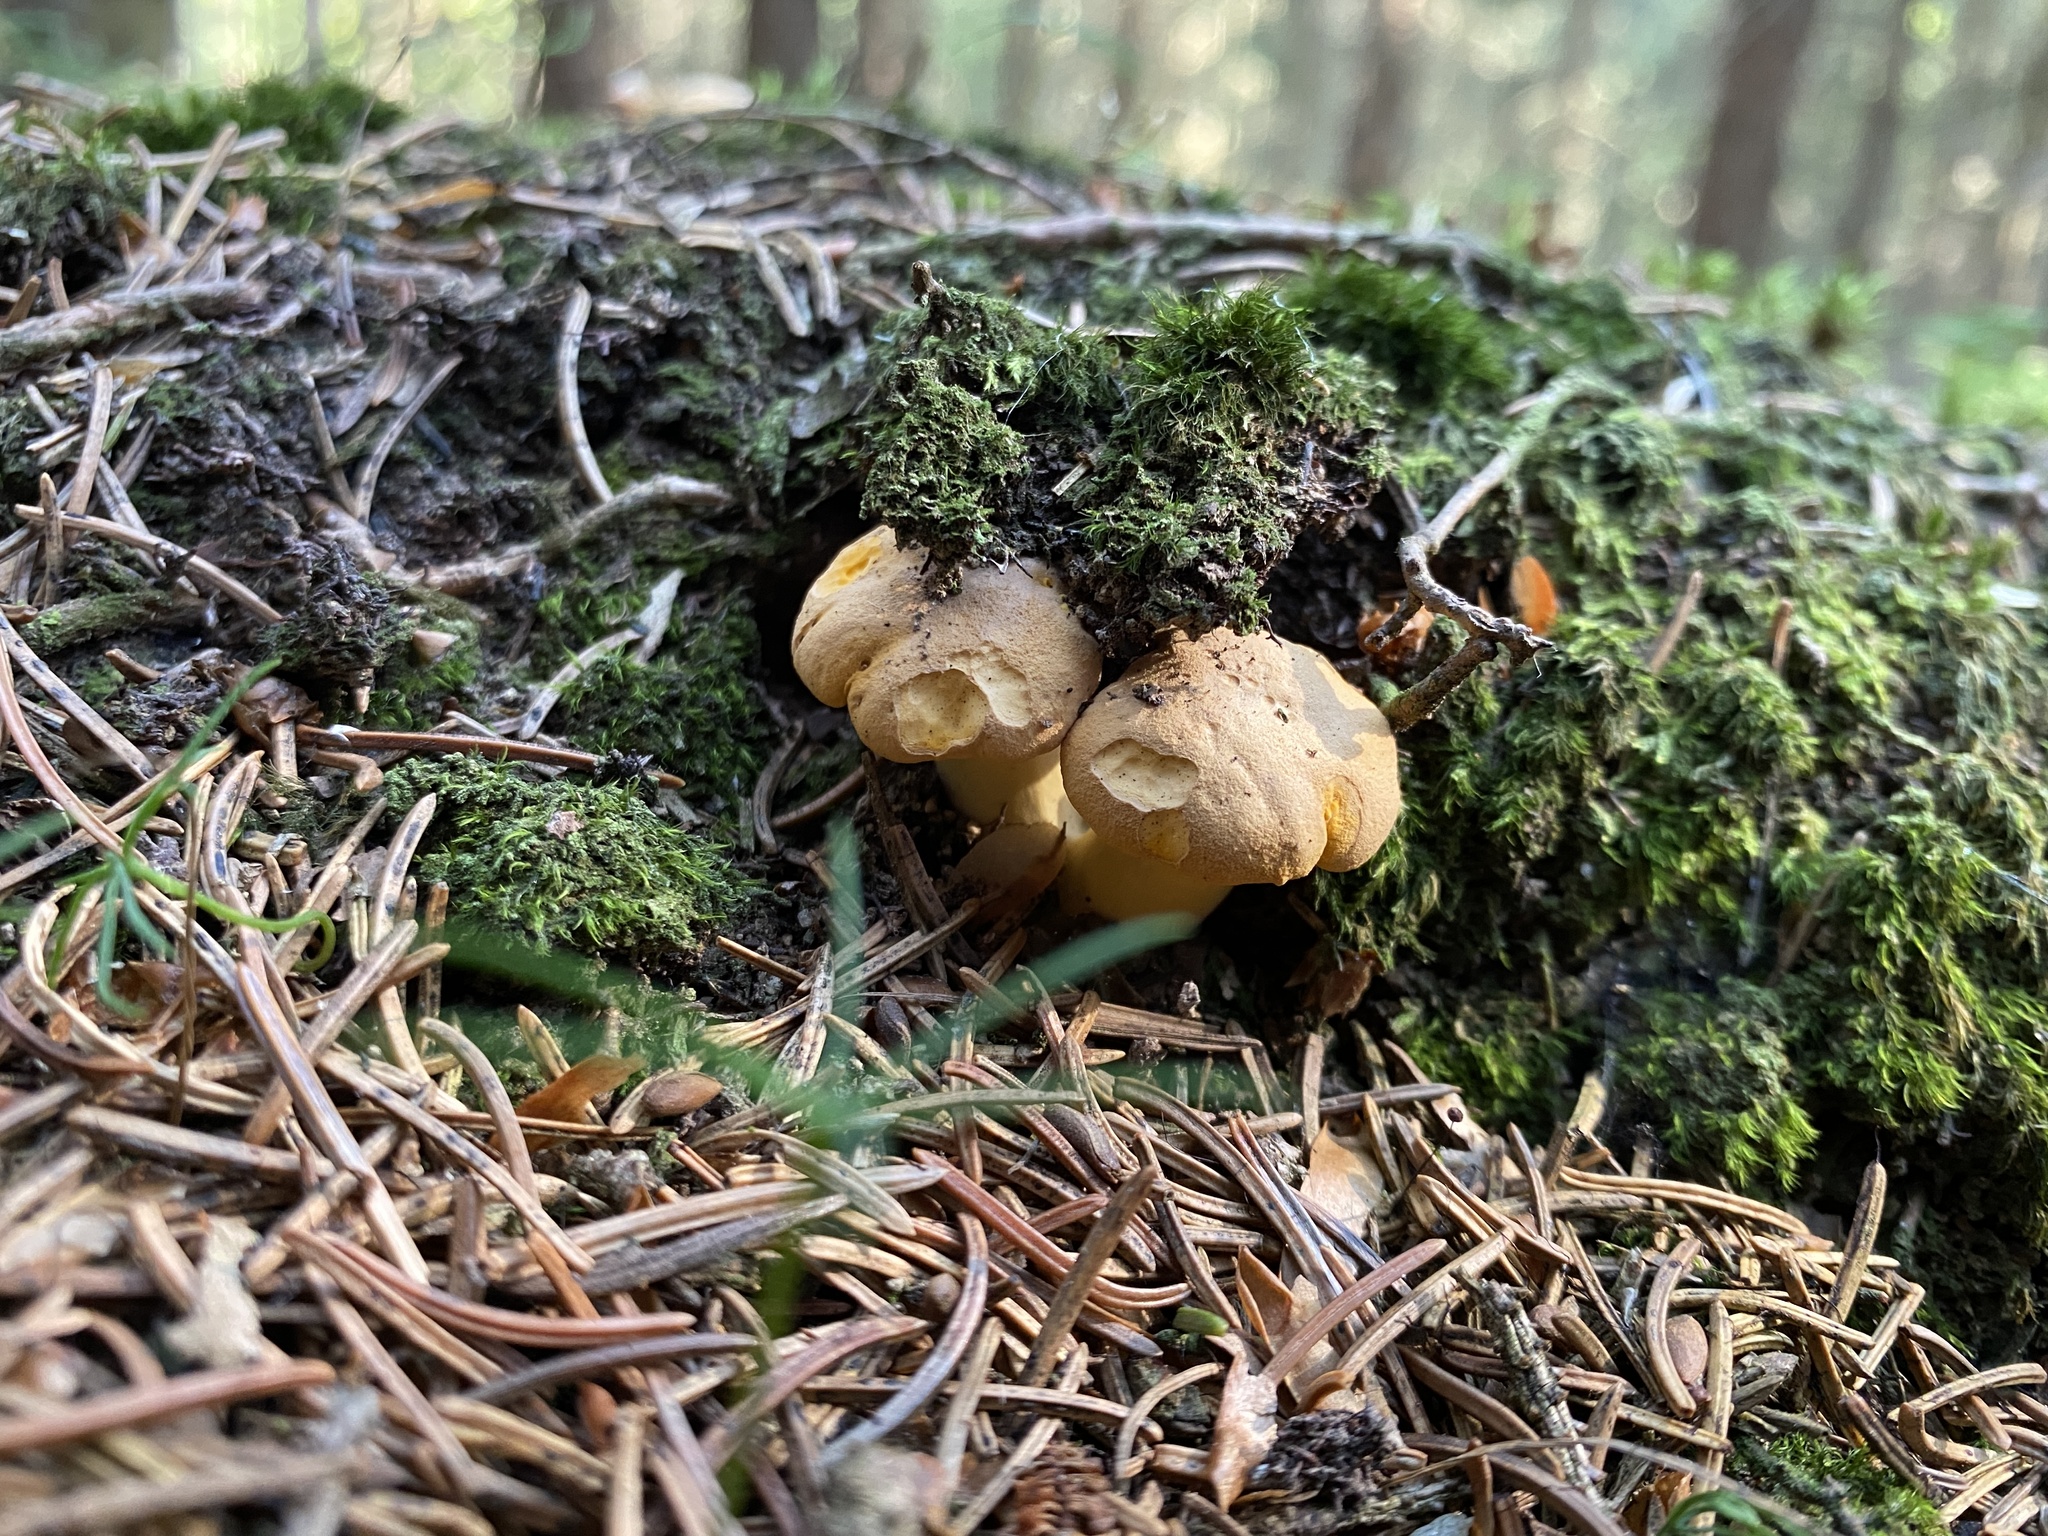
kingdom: Fungi
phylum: Basidiomycota
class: Agaricomycetes
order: Cantharellales
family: Hydnaceae
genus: Cantharellus
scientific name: Cantharellus cibarius
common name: Chanterelle
